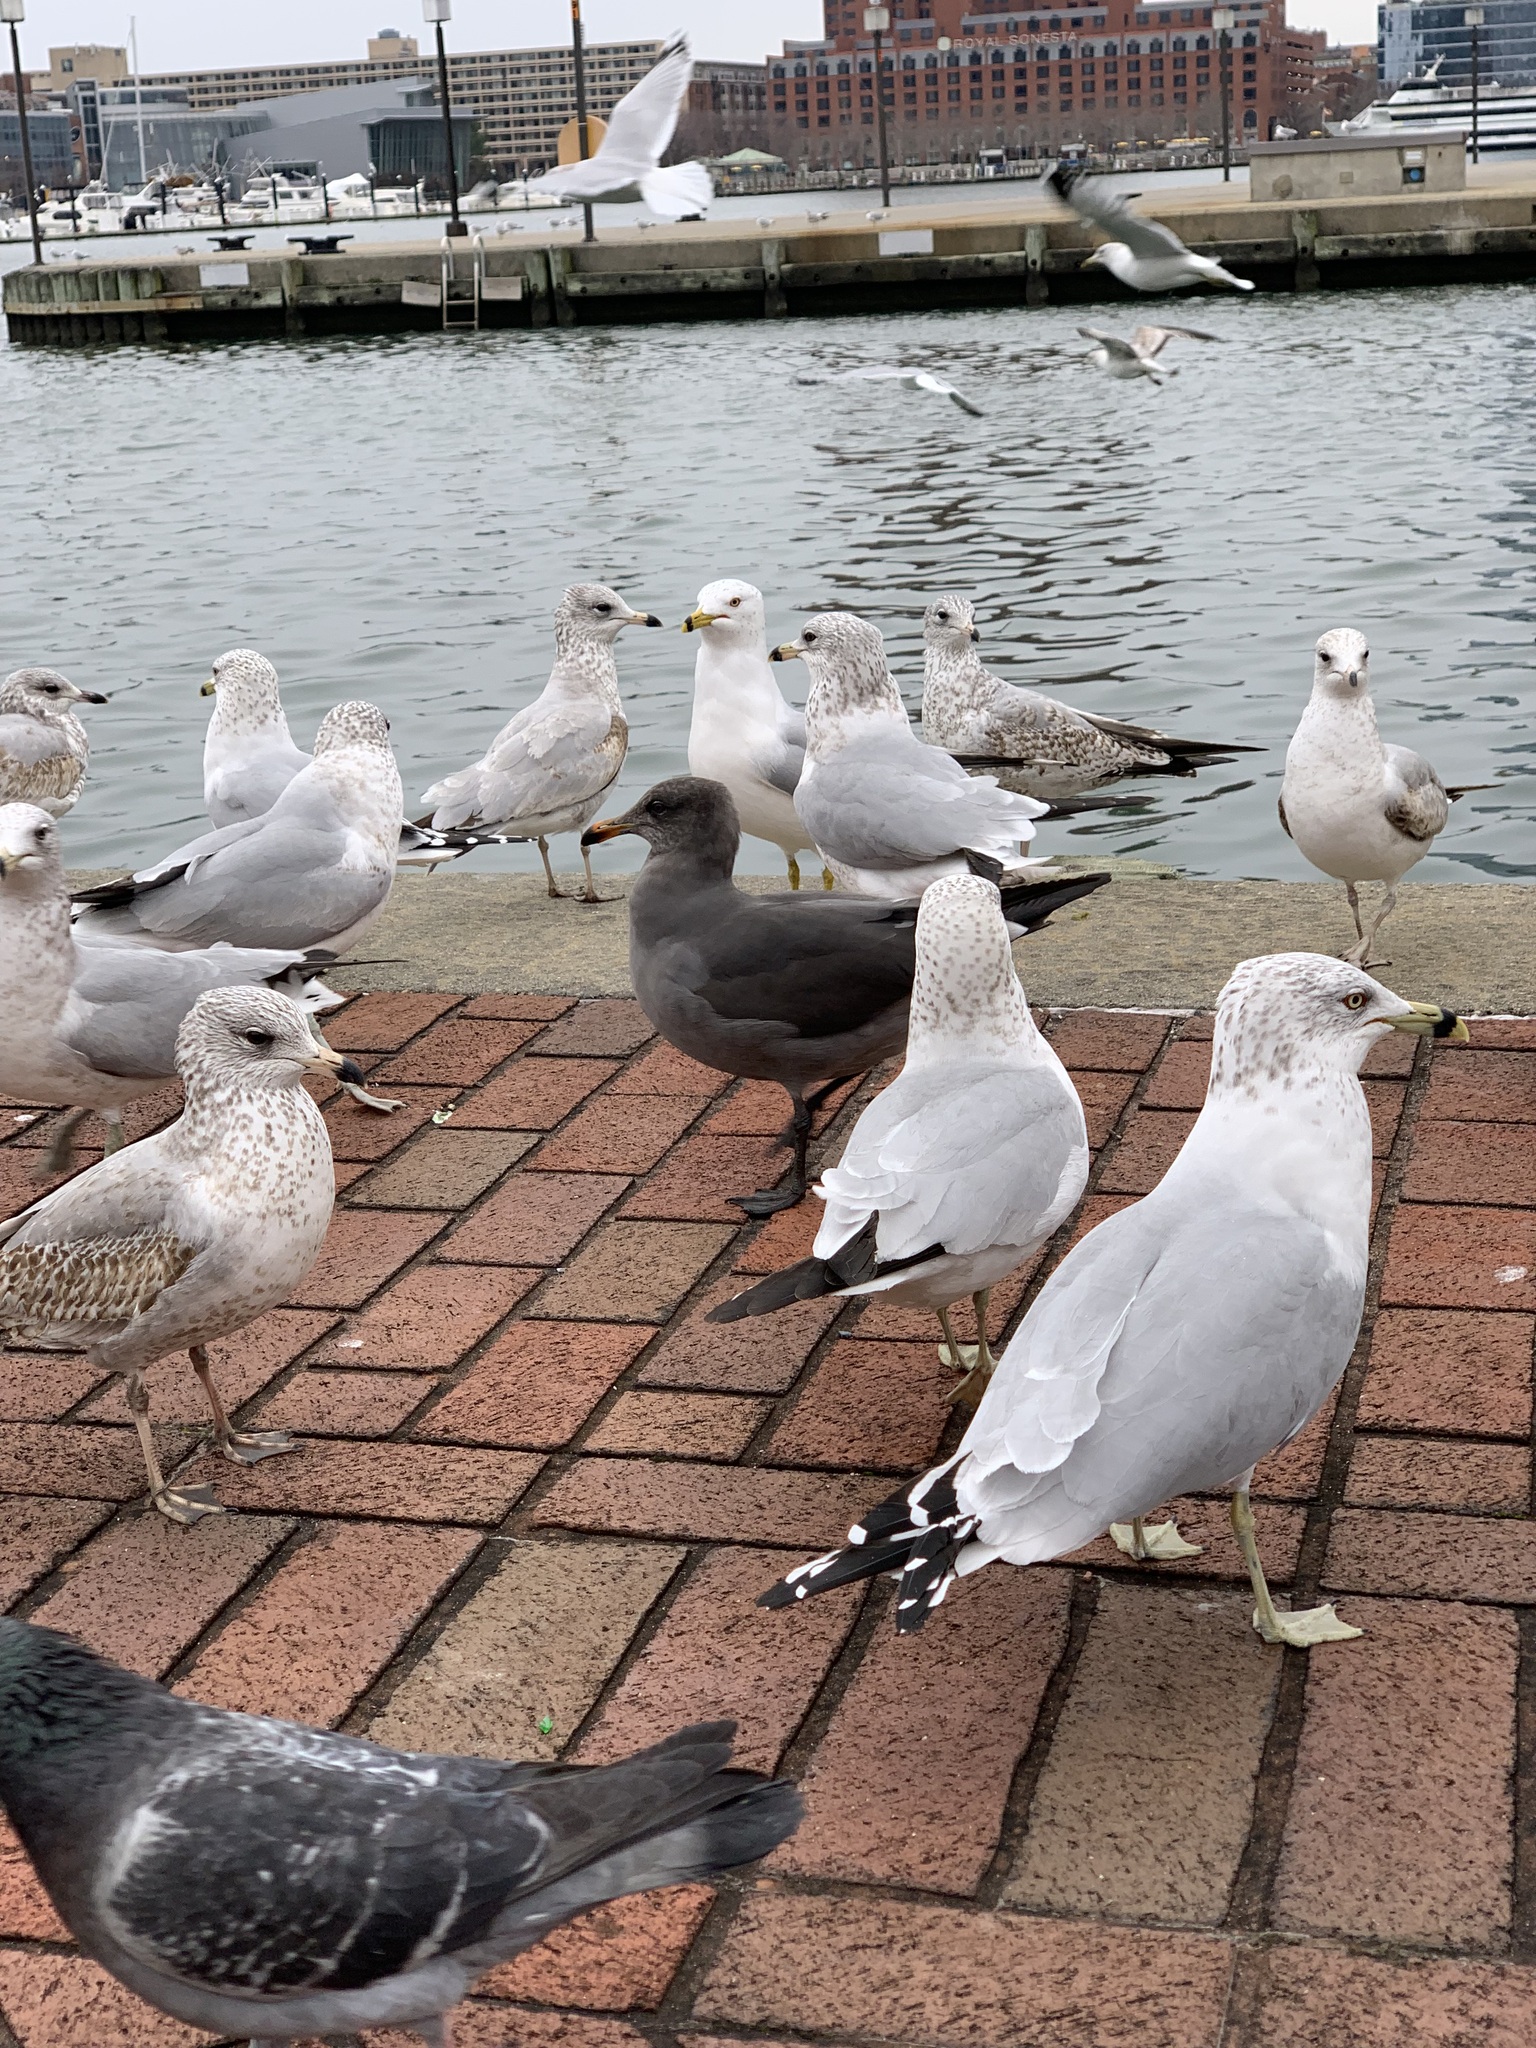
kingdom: Animalia
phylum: Chordata
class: Aves
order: Charadriiformes
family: Laridae
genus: Larus
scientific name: Larus heermanni
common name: Heermann's gull
